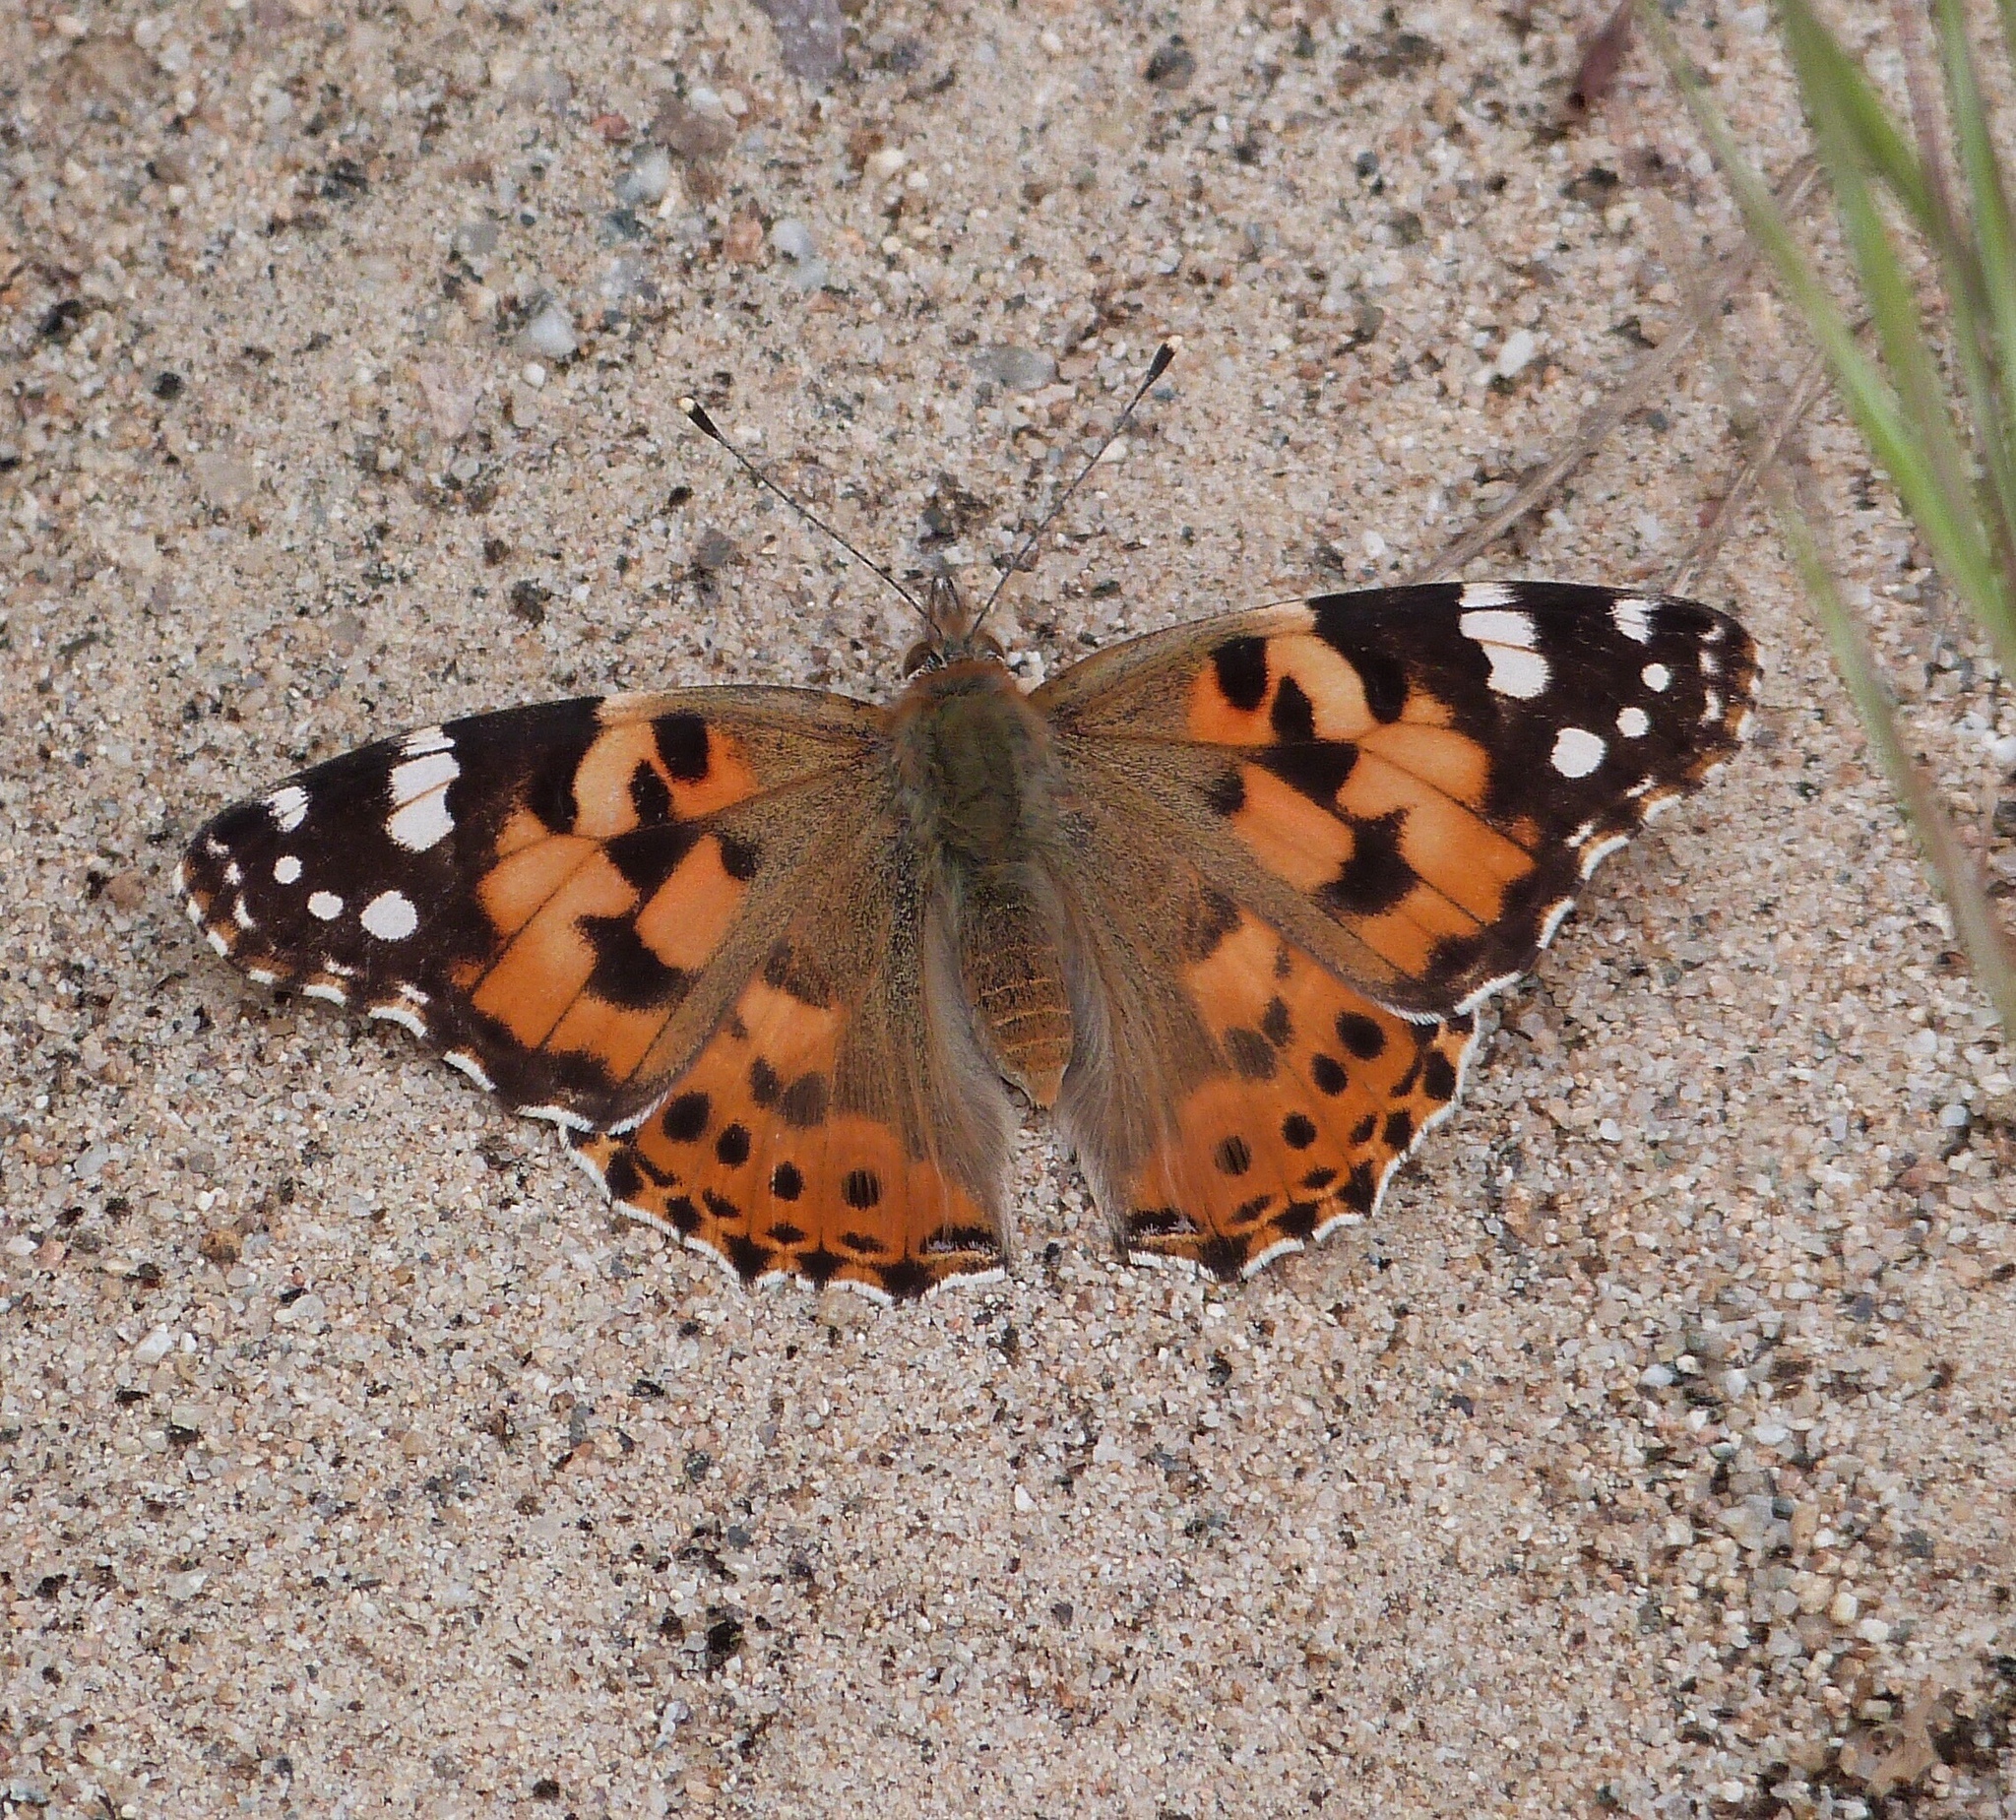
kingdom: Animalia
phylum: Arthropoda
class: Insecta
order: Lepidoptera
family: Nymphalidae
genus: Vanessa
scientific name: Vanessa cardui
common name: Painted lady
